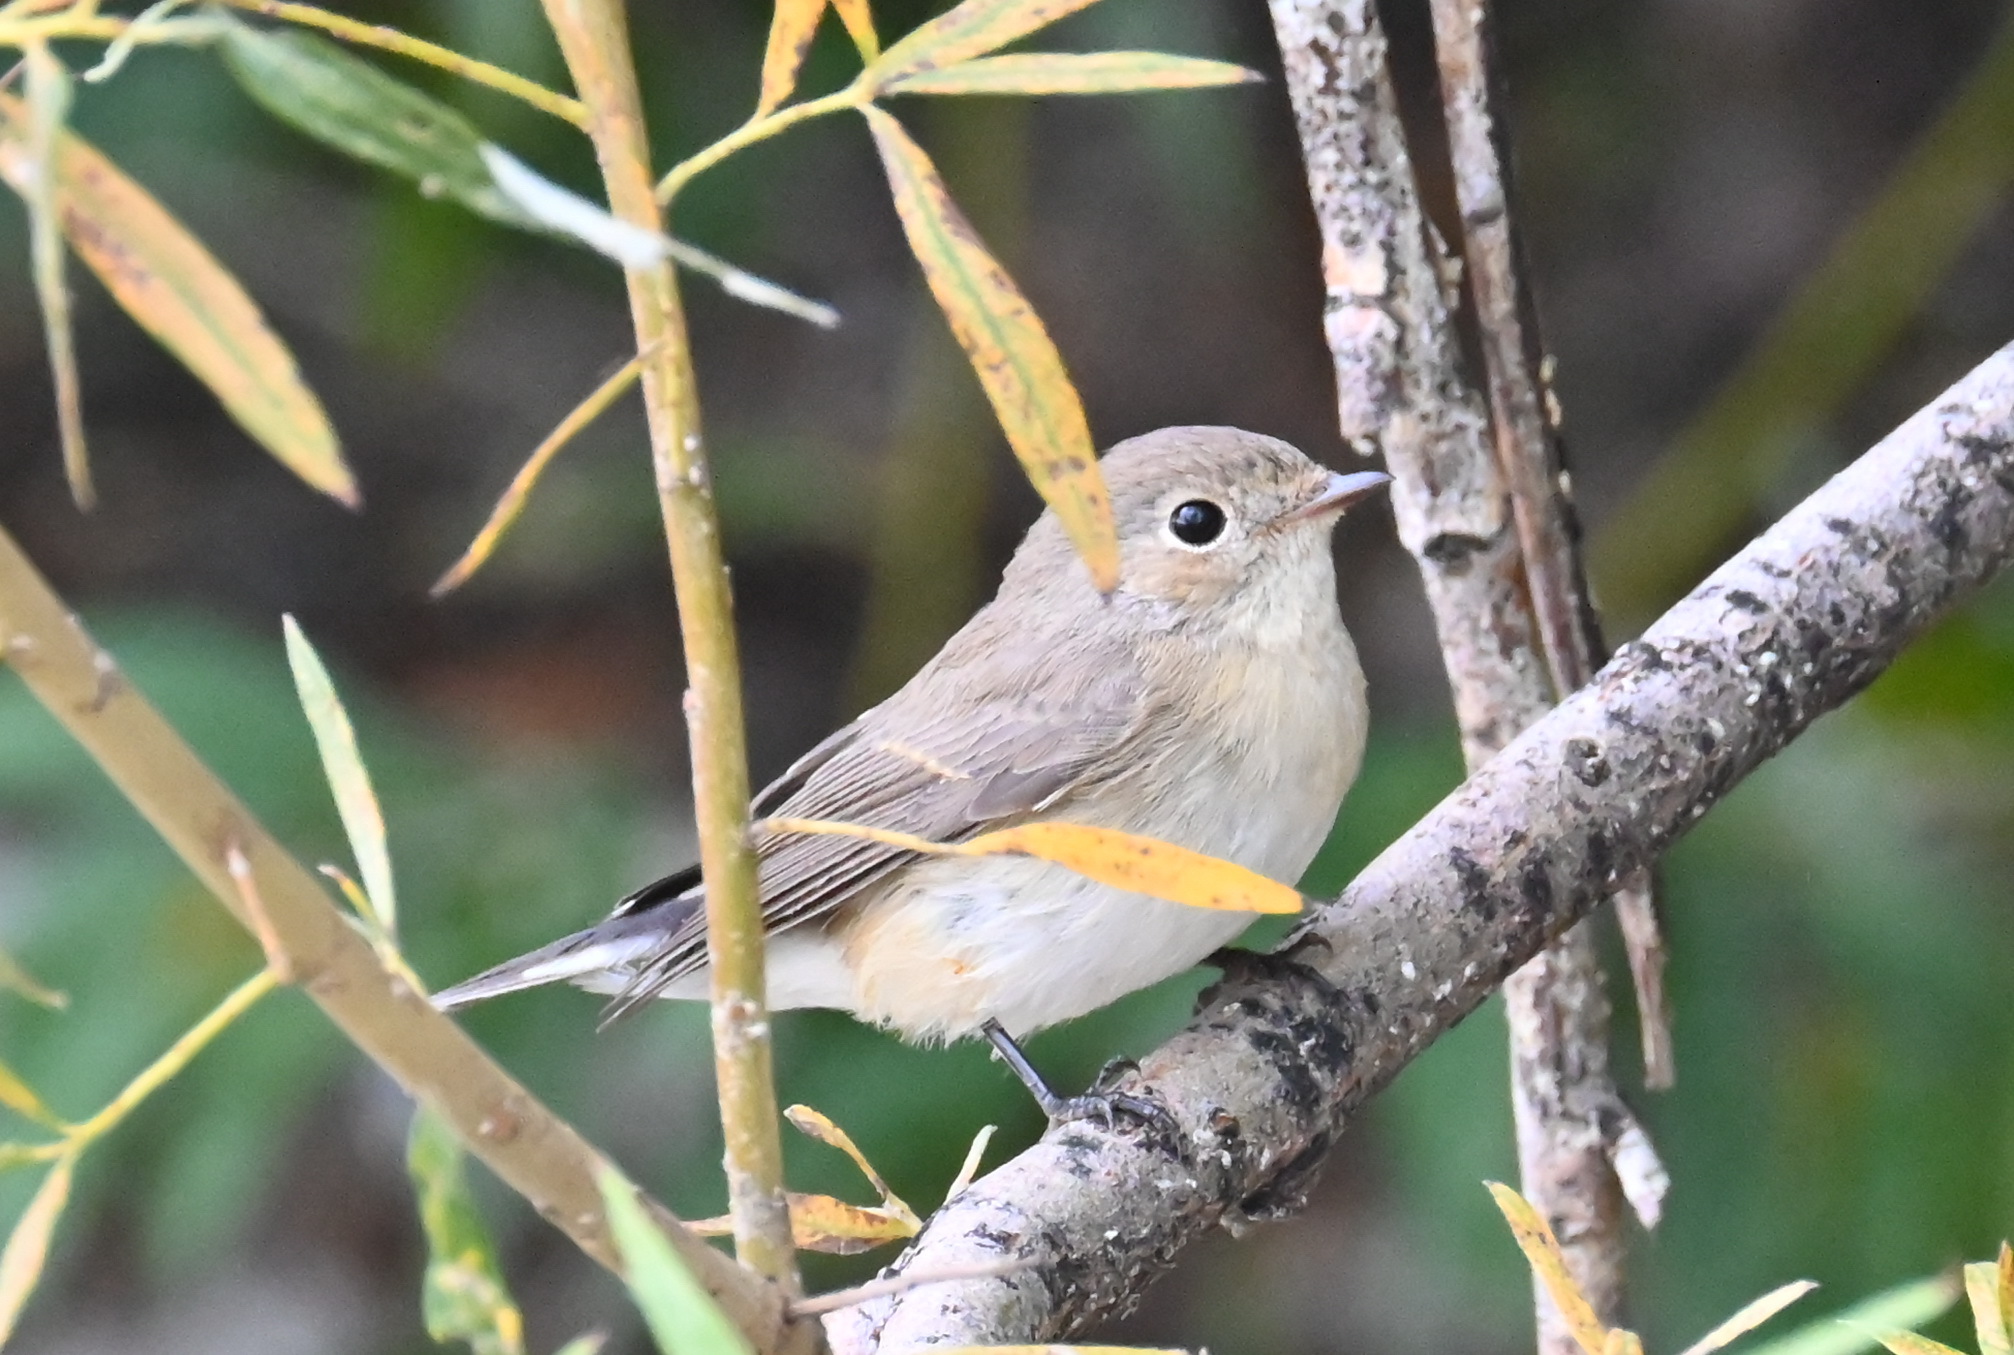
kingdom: Animalia
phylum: Chordata
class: Aves
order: Passeriformes
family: Muscicapidae
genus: Ficedula
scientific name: Ficedula parva
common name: Red-breasted flycatcher
